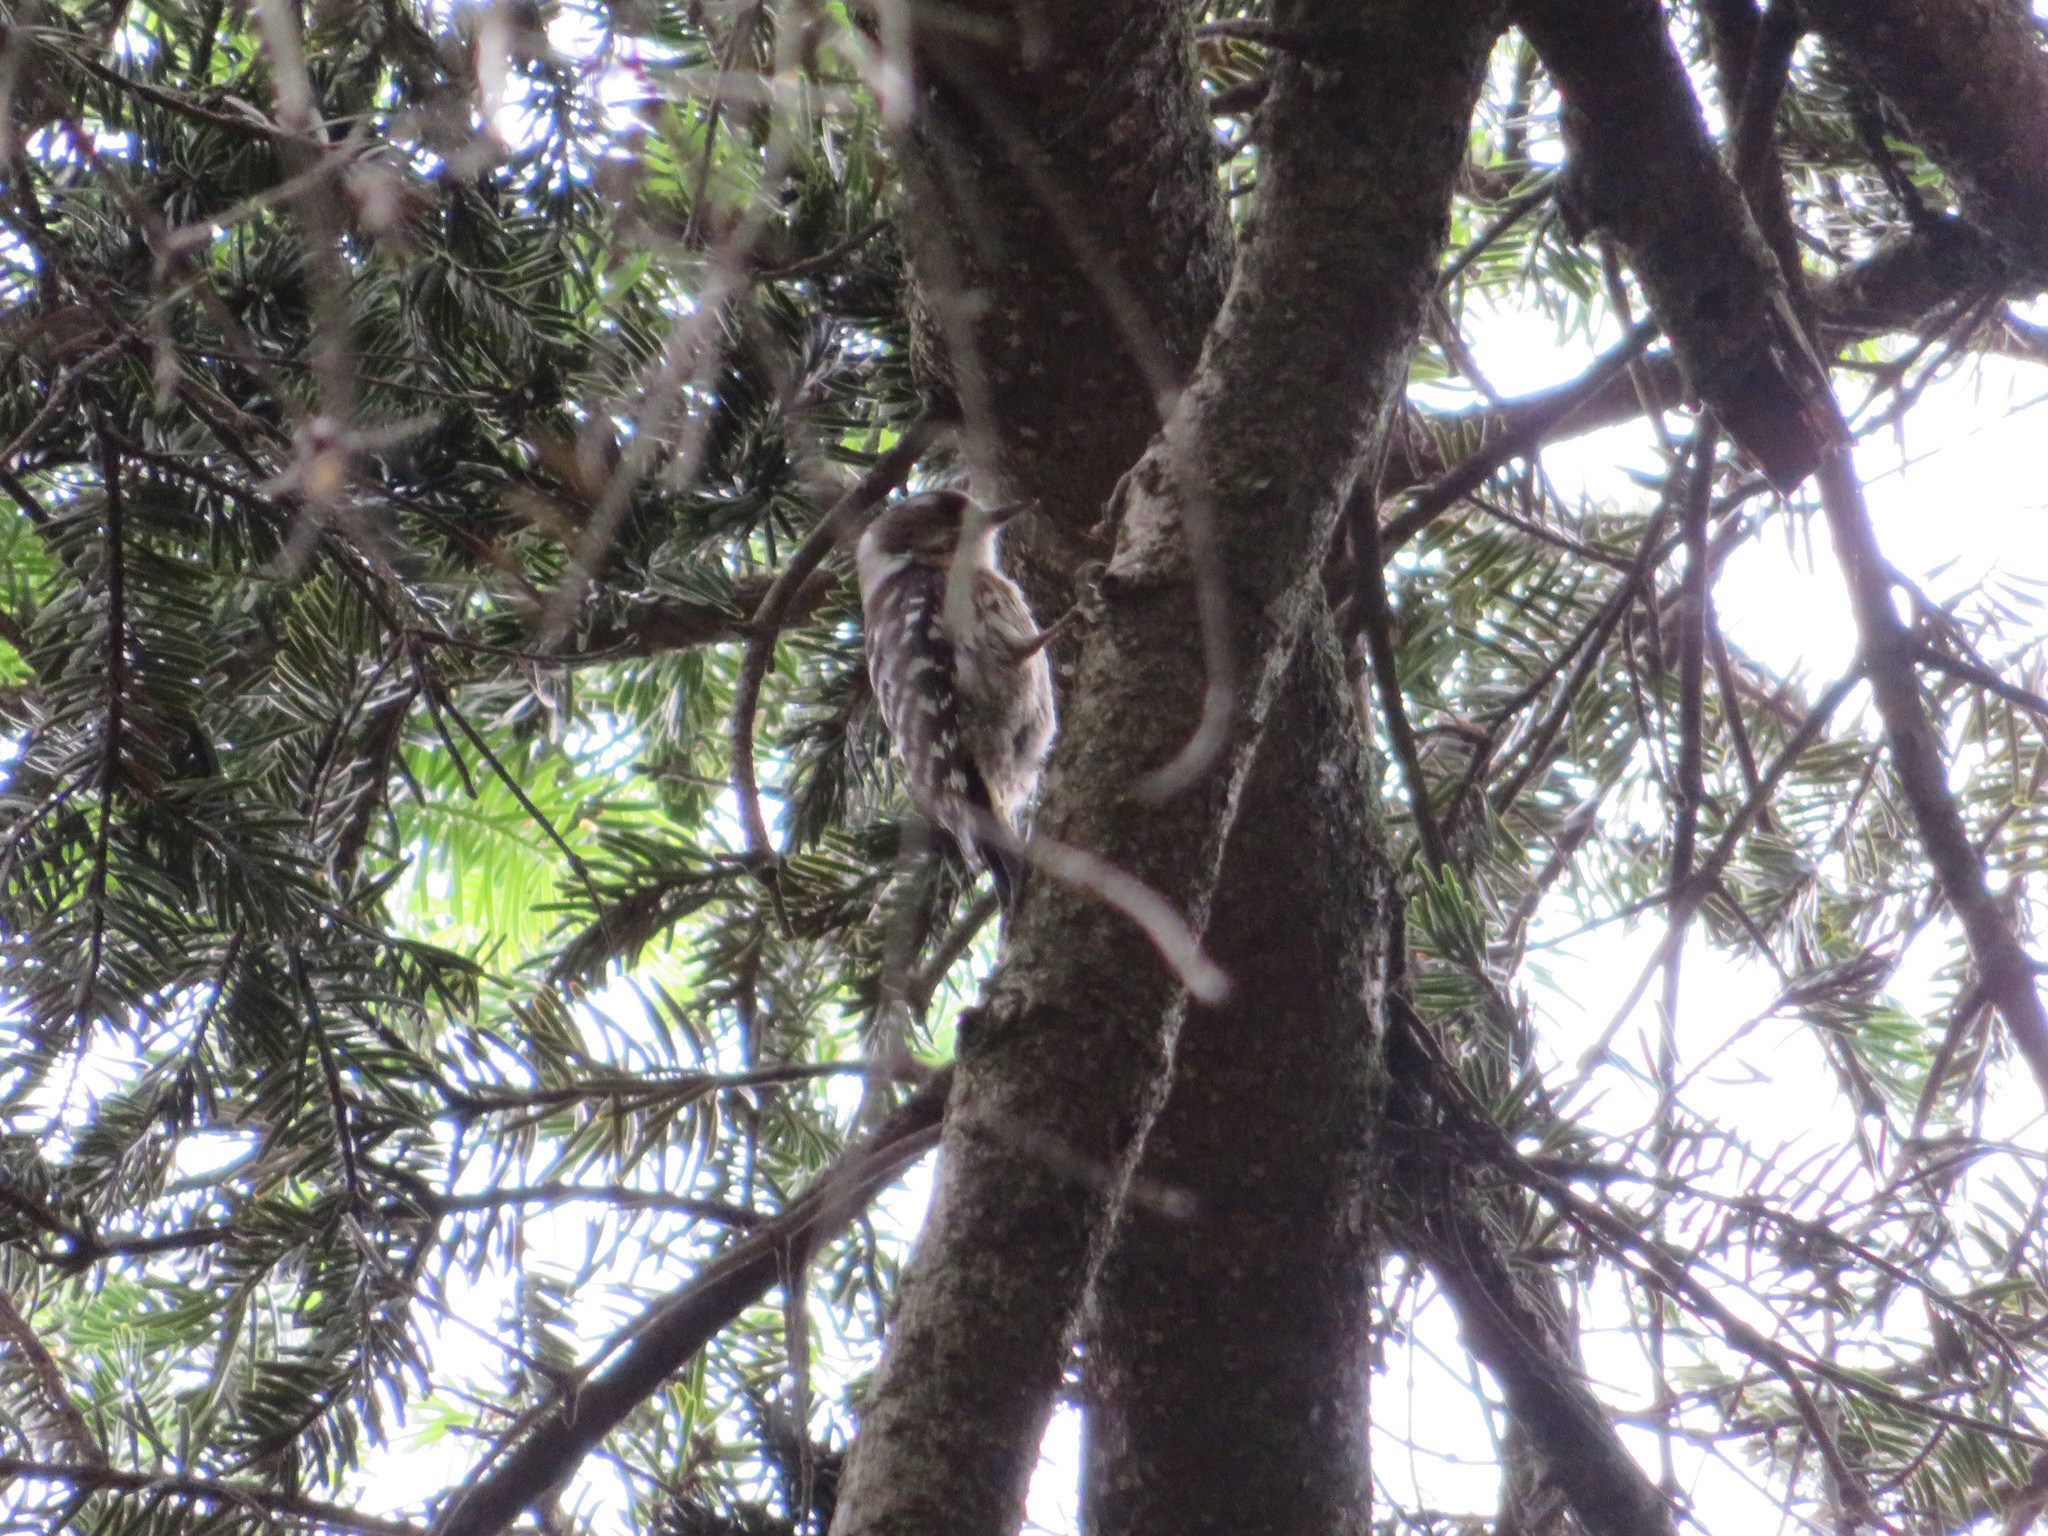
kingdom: Animalia
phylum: Chordata
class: Aves
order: Piciformes
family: Picidae
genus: Yungipicus
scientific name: Yungipicus kizuki
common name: Japanese pygmy woodpecker
